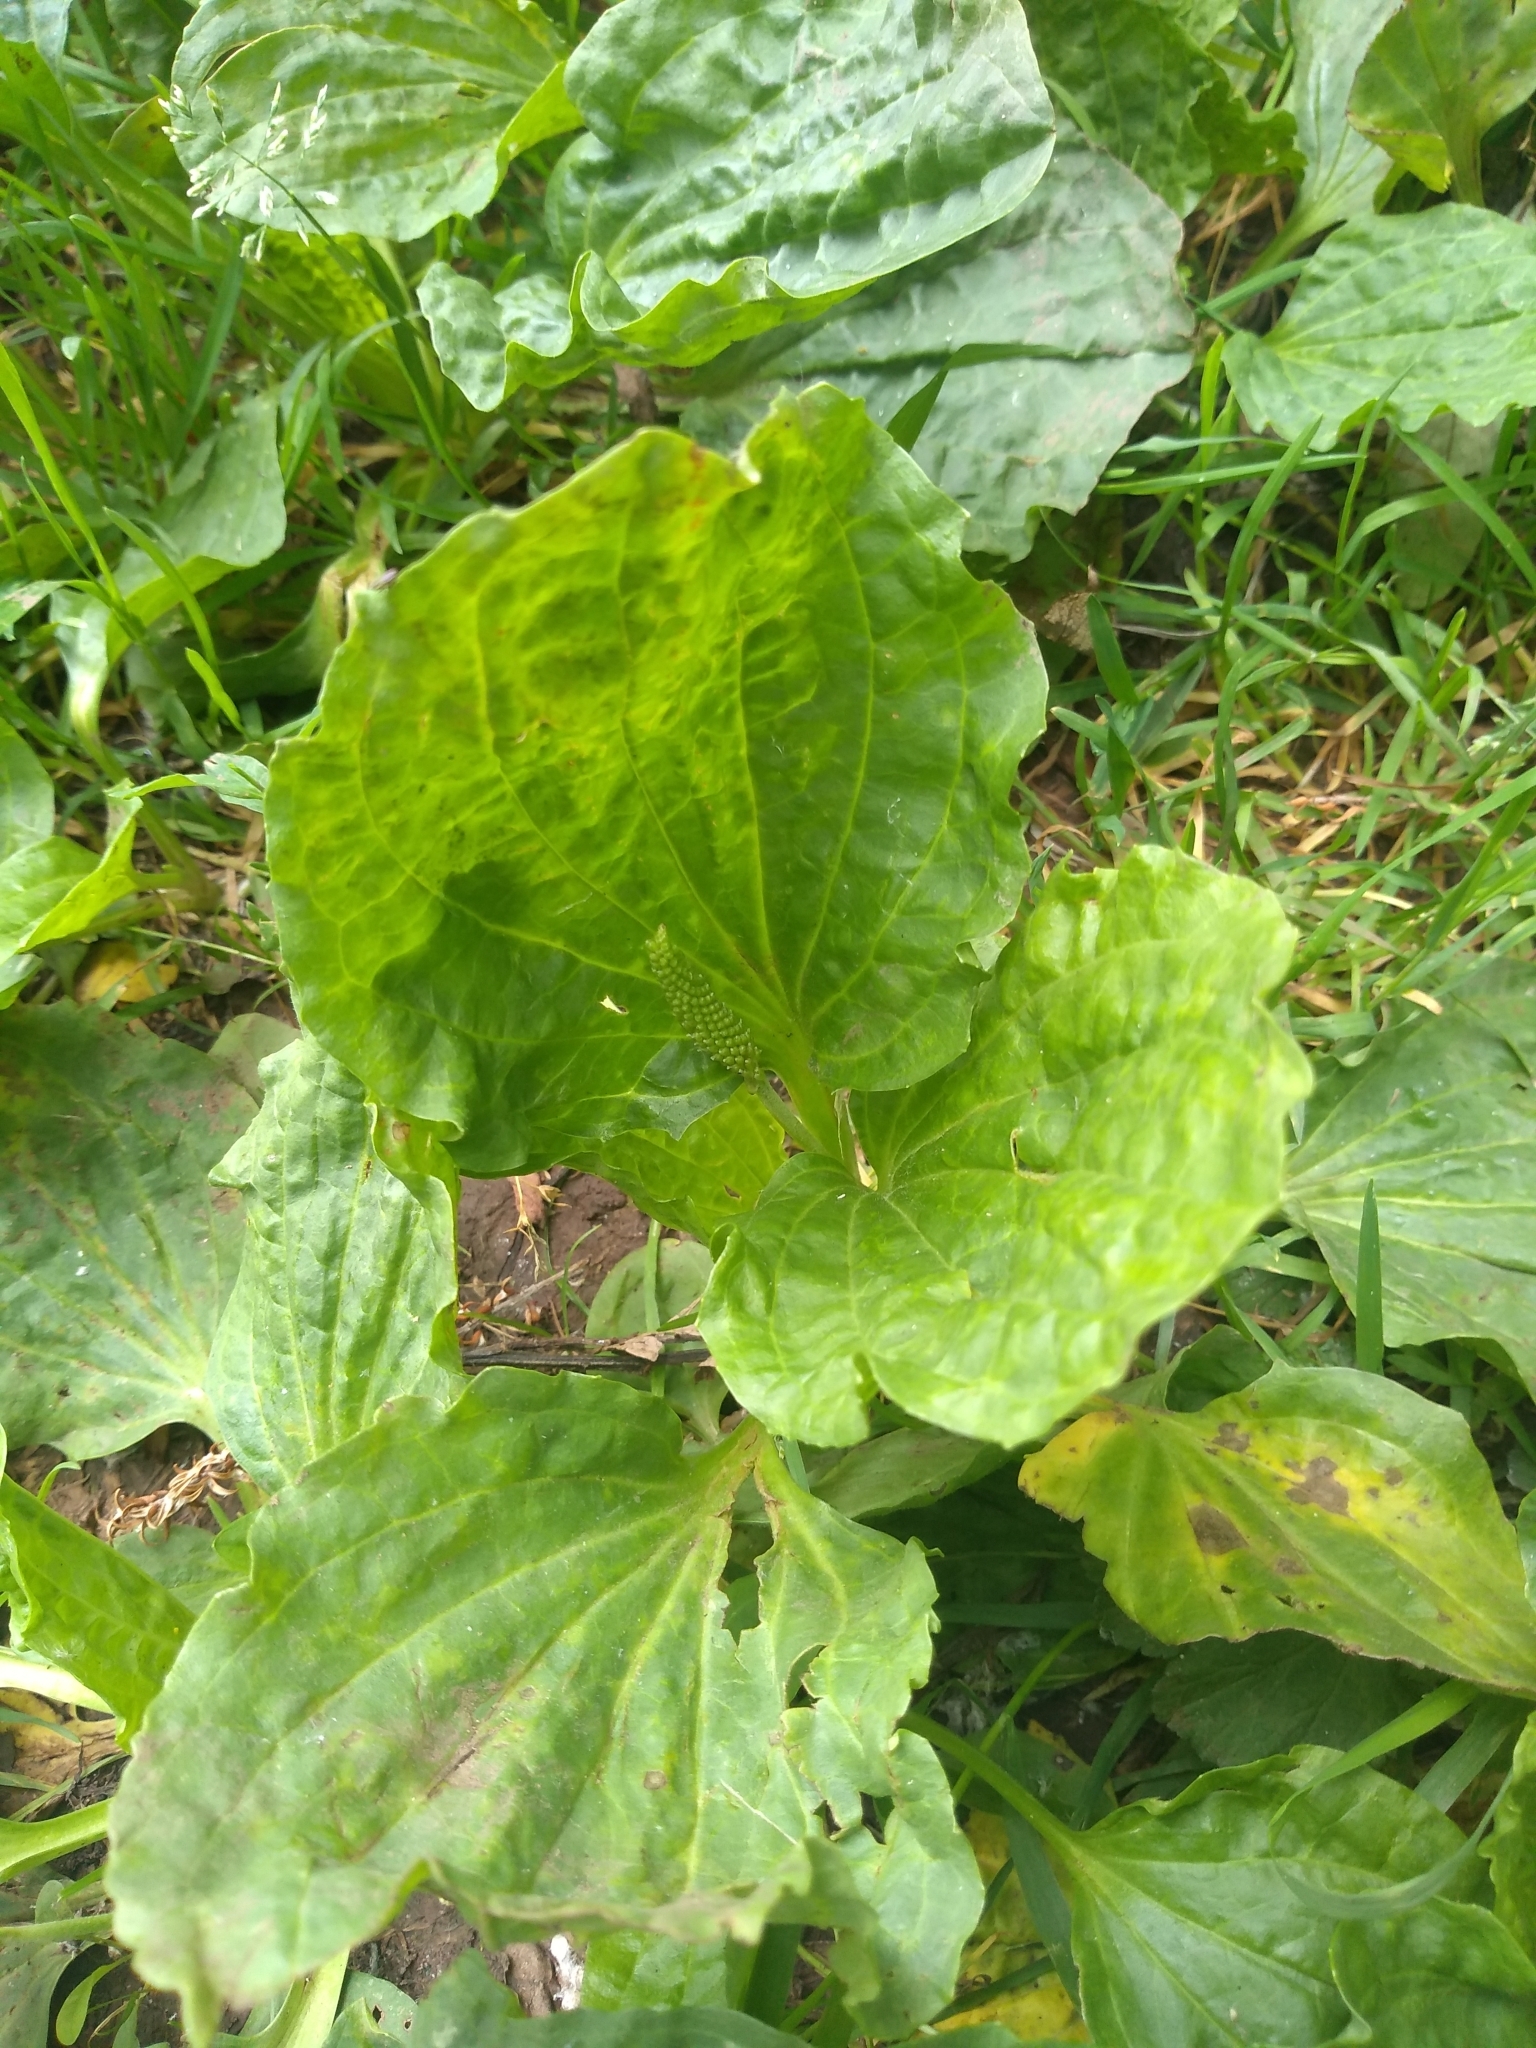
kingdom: Plantae
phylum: Tracheophyta
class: Magnoliopsida
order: Lamiales
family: Plantaginaceae
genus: Plantago
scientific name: Plantago major
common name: Common plantain
